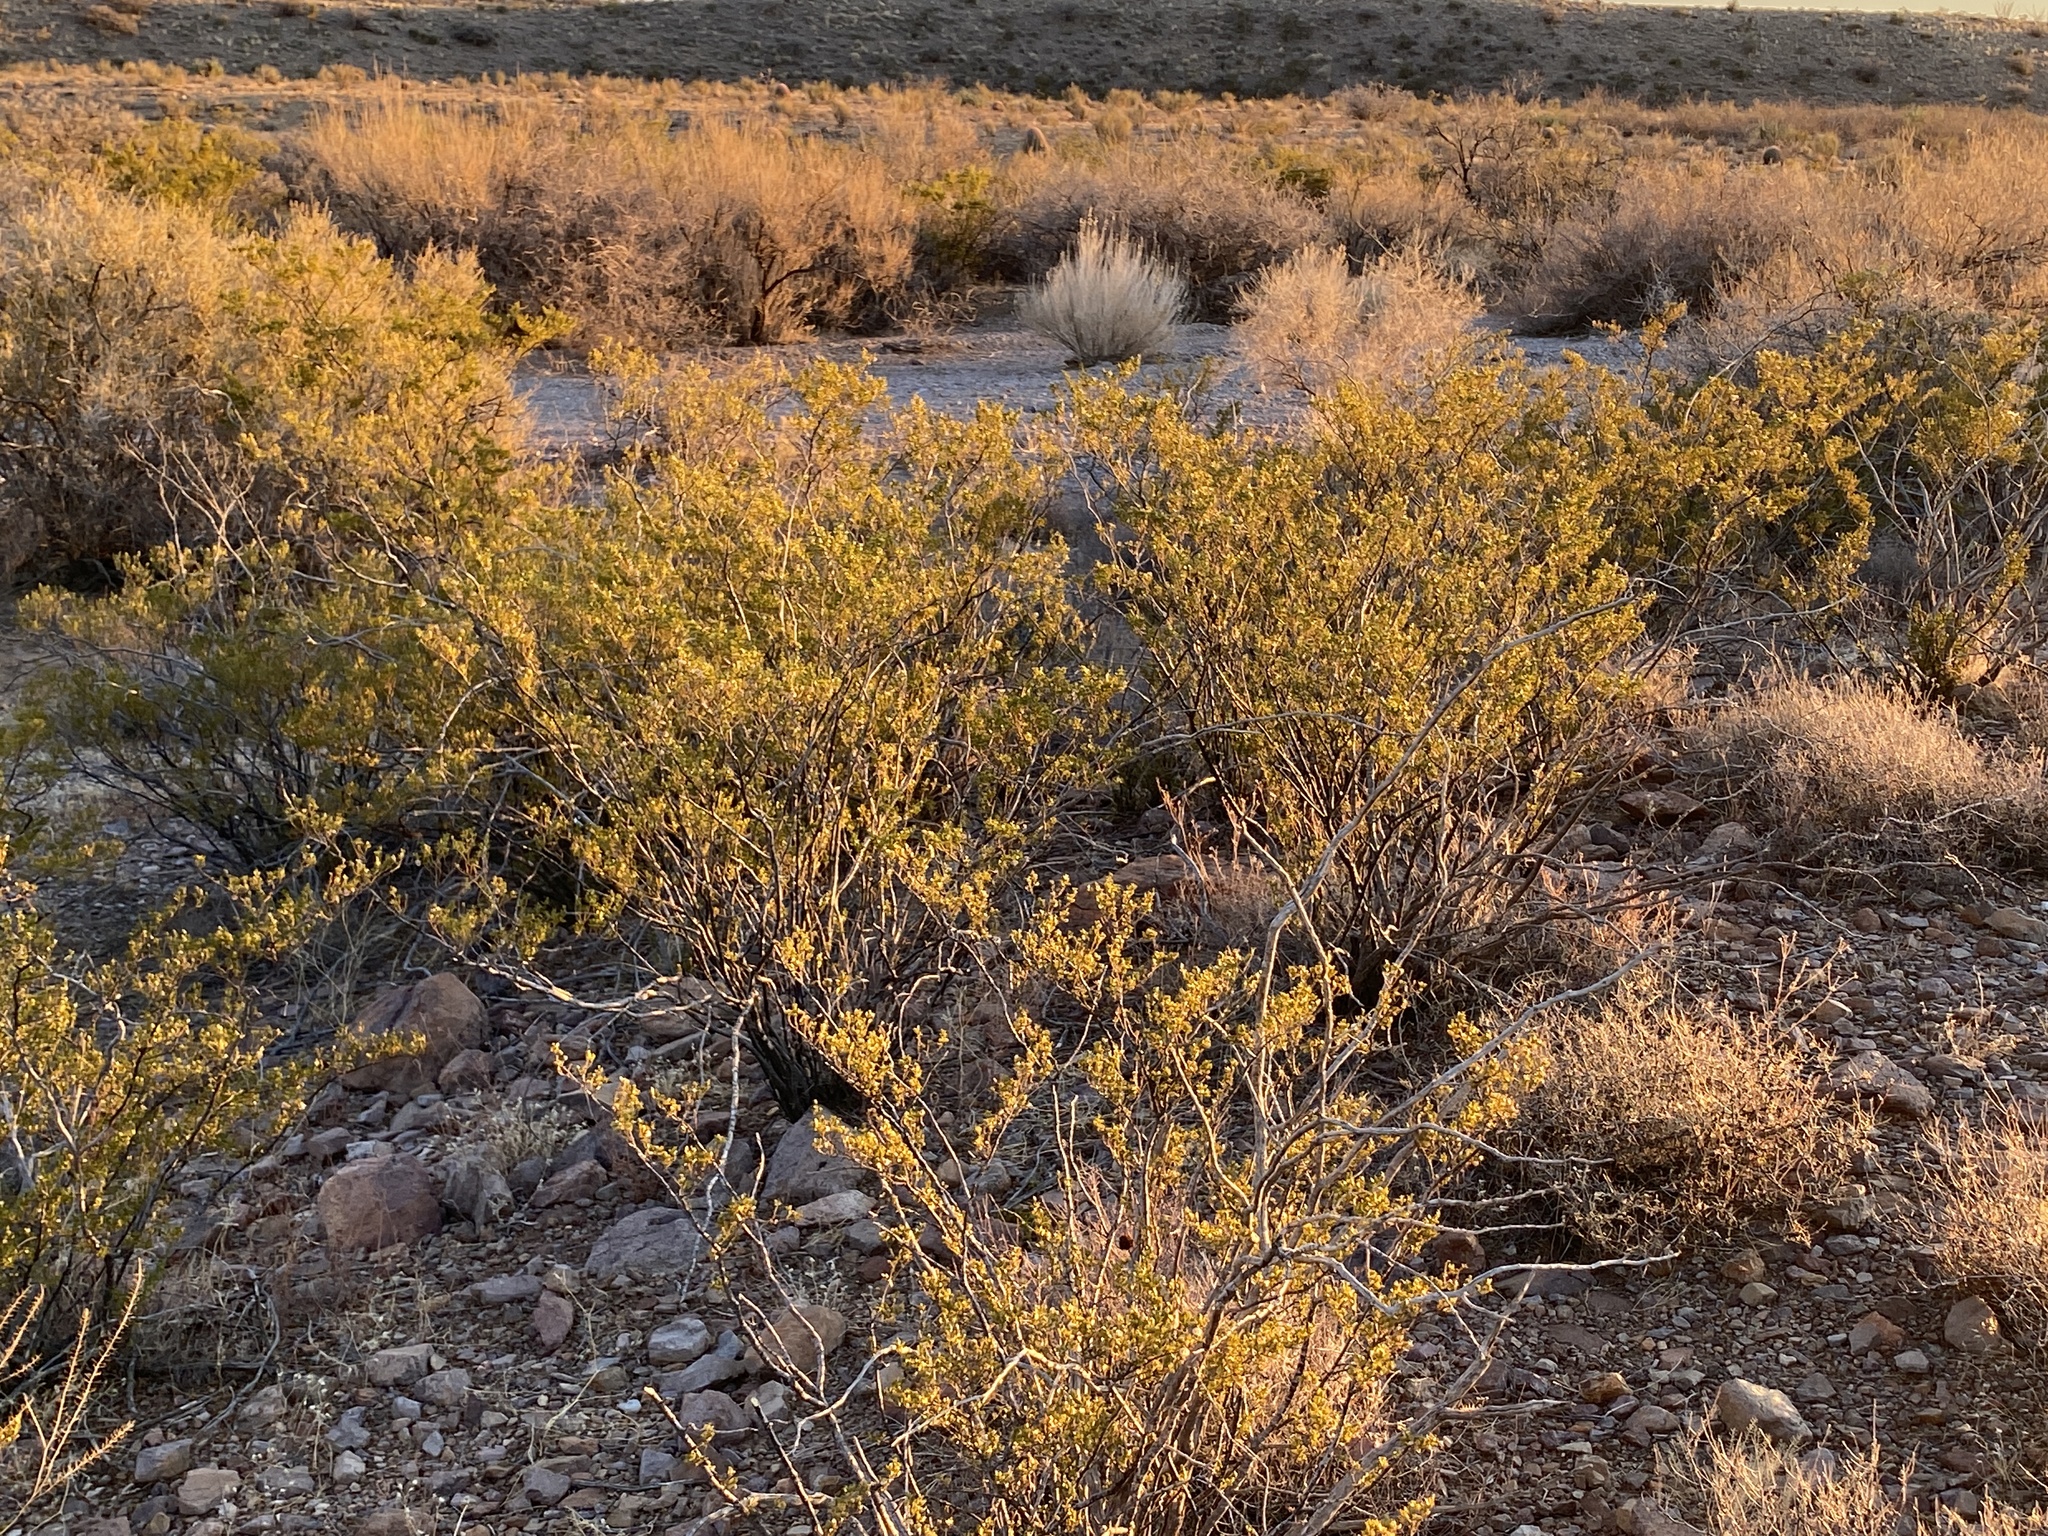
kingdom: Plantae
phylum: Tracheophyta
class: Magnoliopsida
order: Zygophyllales
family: Zygophyllaceae
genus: Larrea
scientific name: Larrea tridentata
